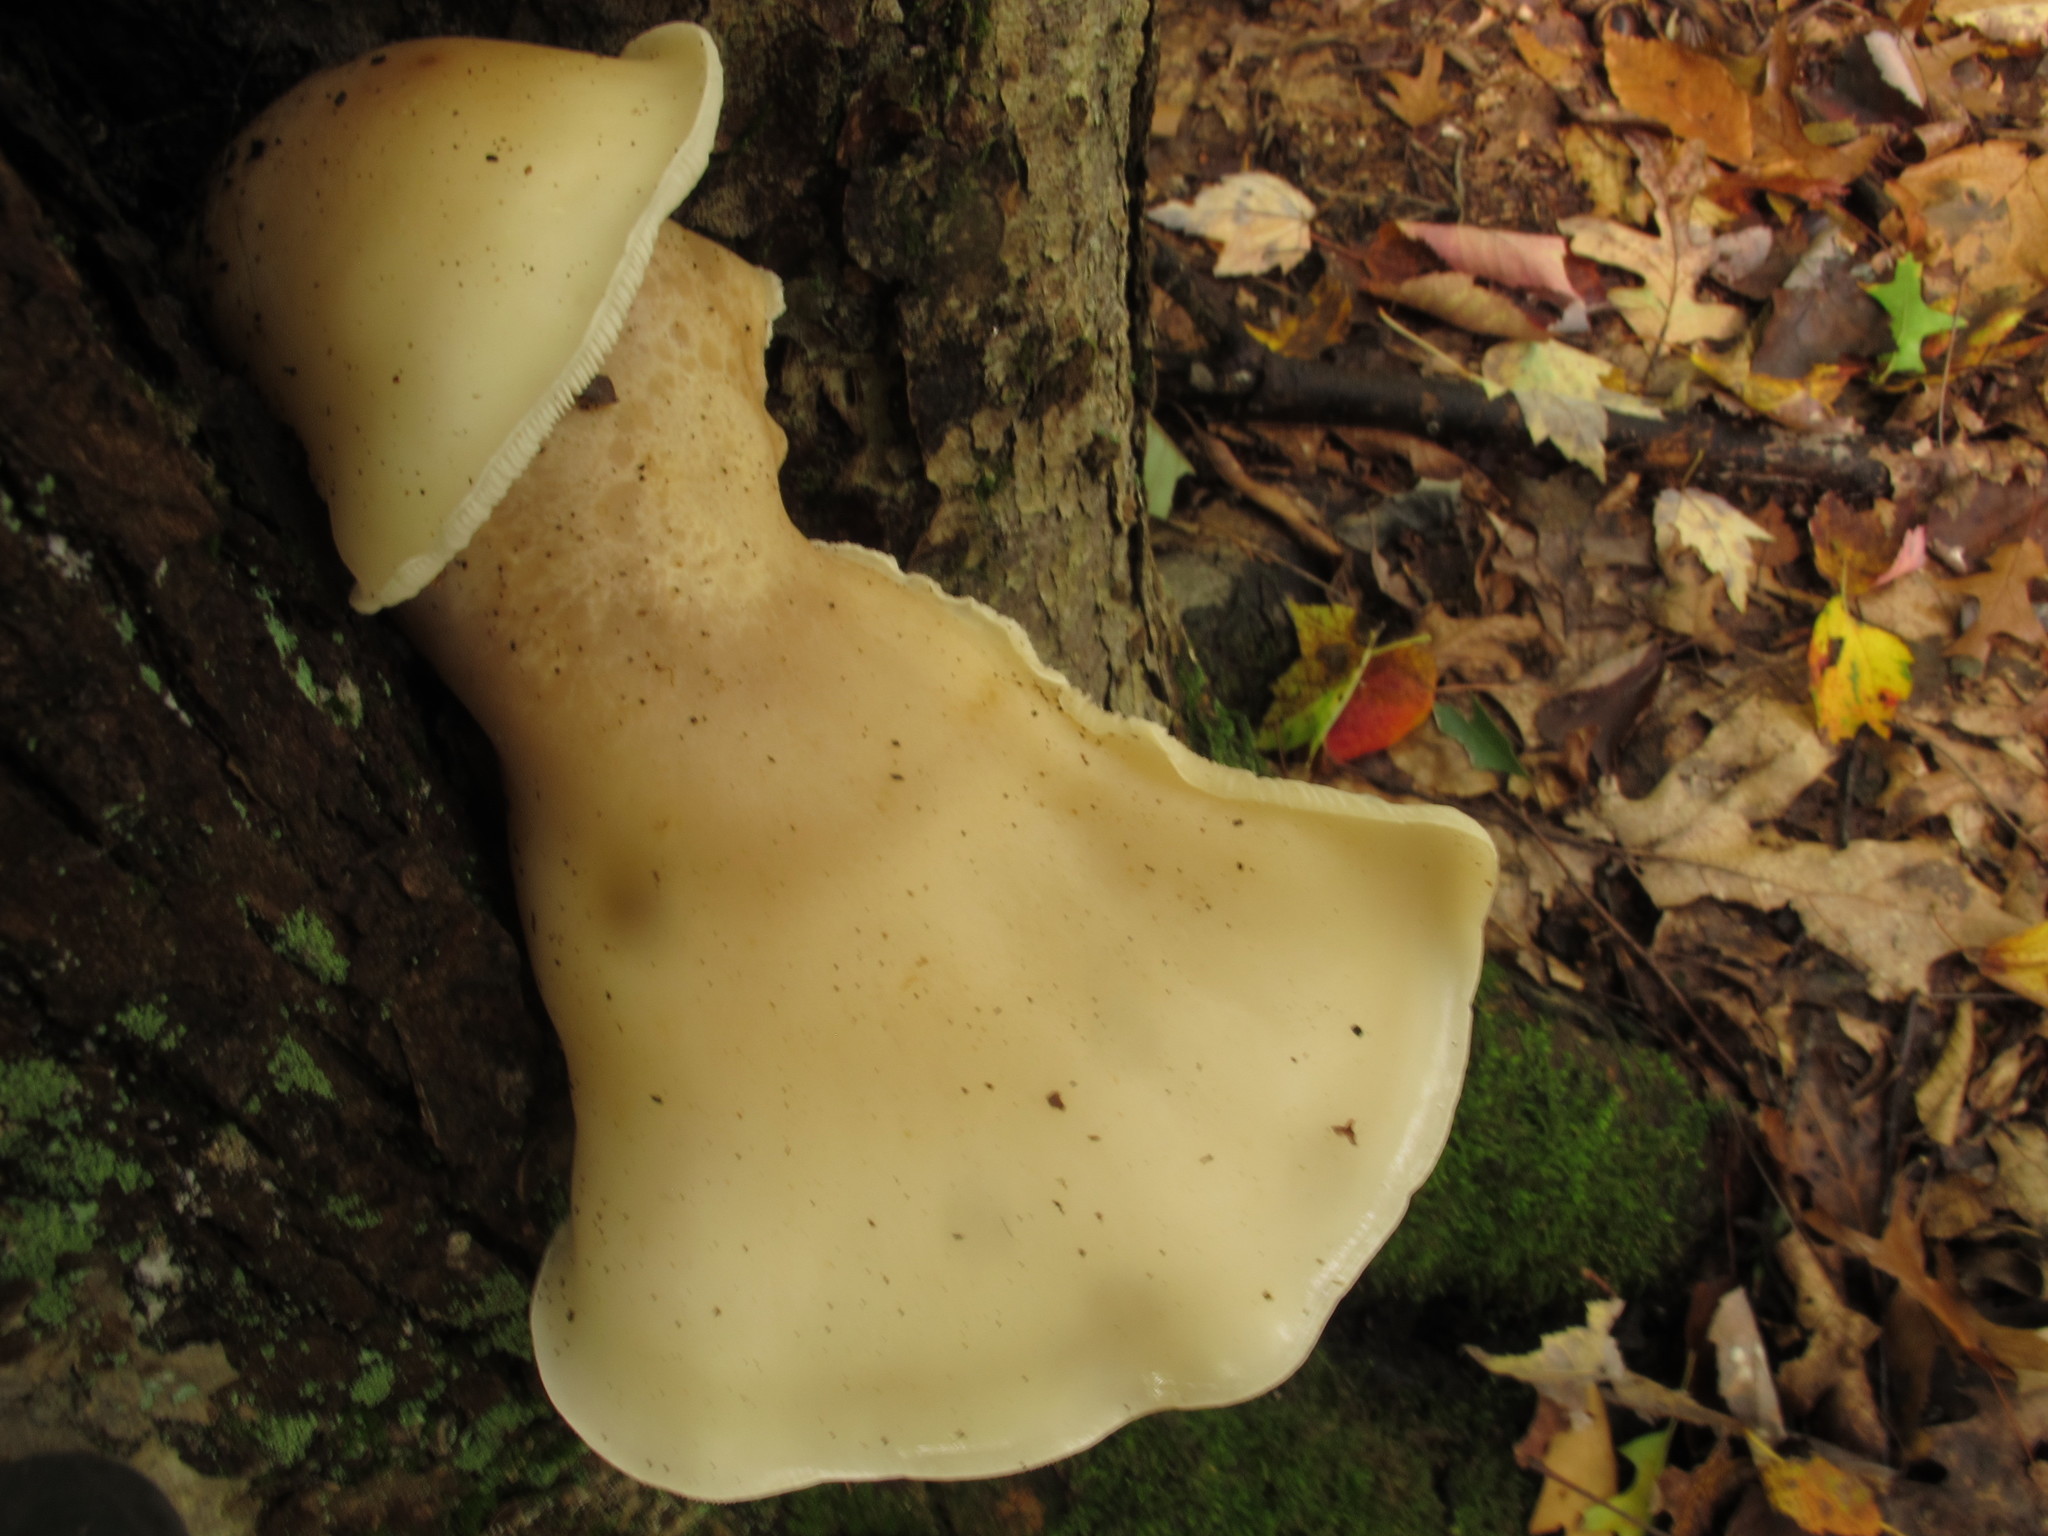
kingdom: Fungi
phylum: Basidiomycota
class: Agaricomycetes
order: Agaricales
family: Lyophyllaceae
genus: Hypsizygus
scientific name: Hypsizygus marmoreus
